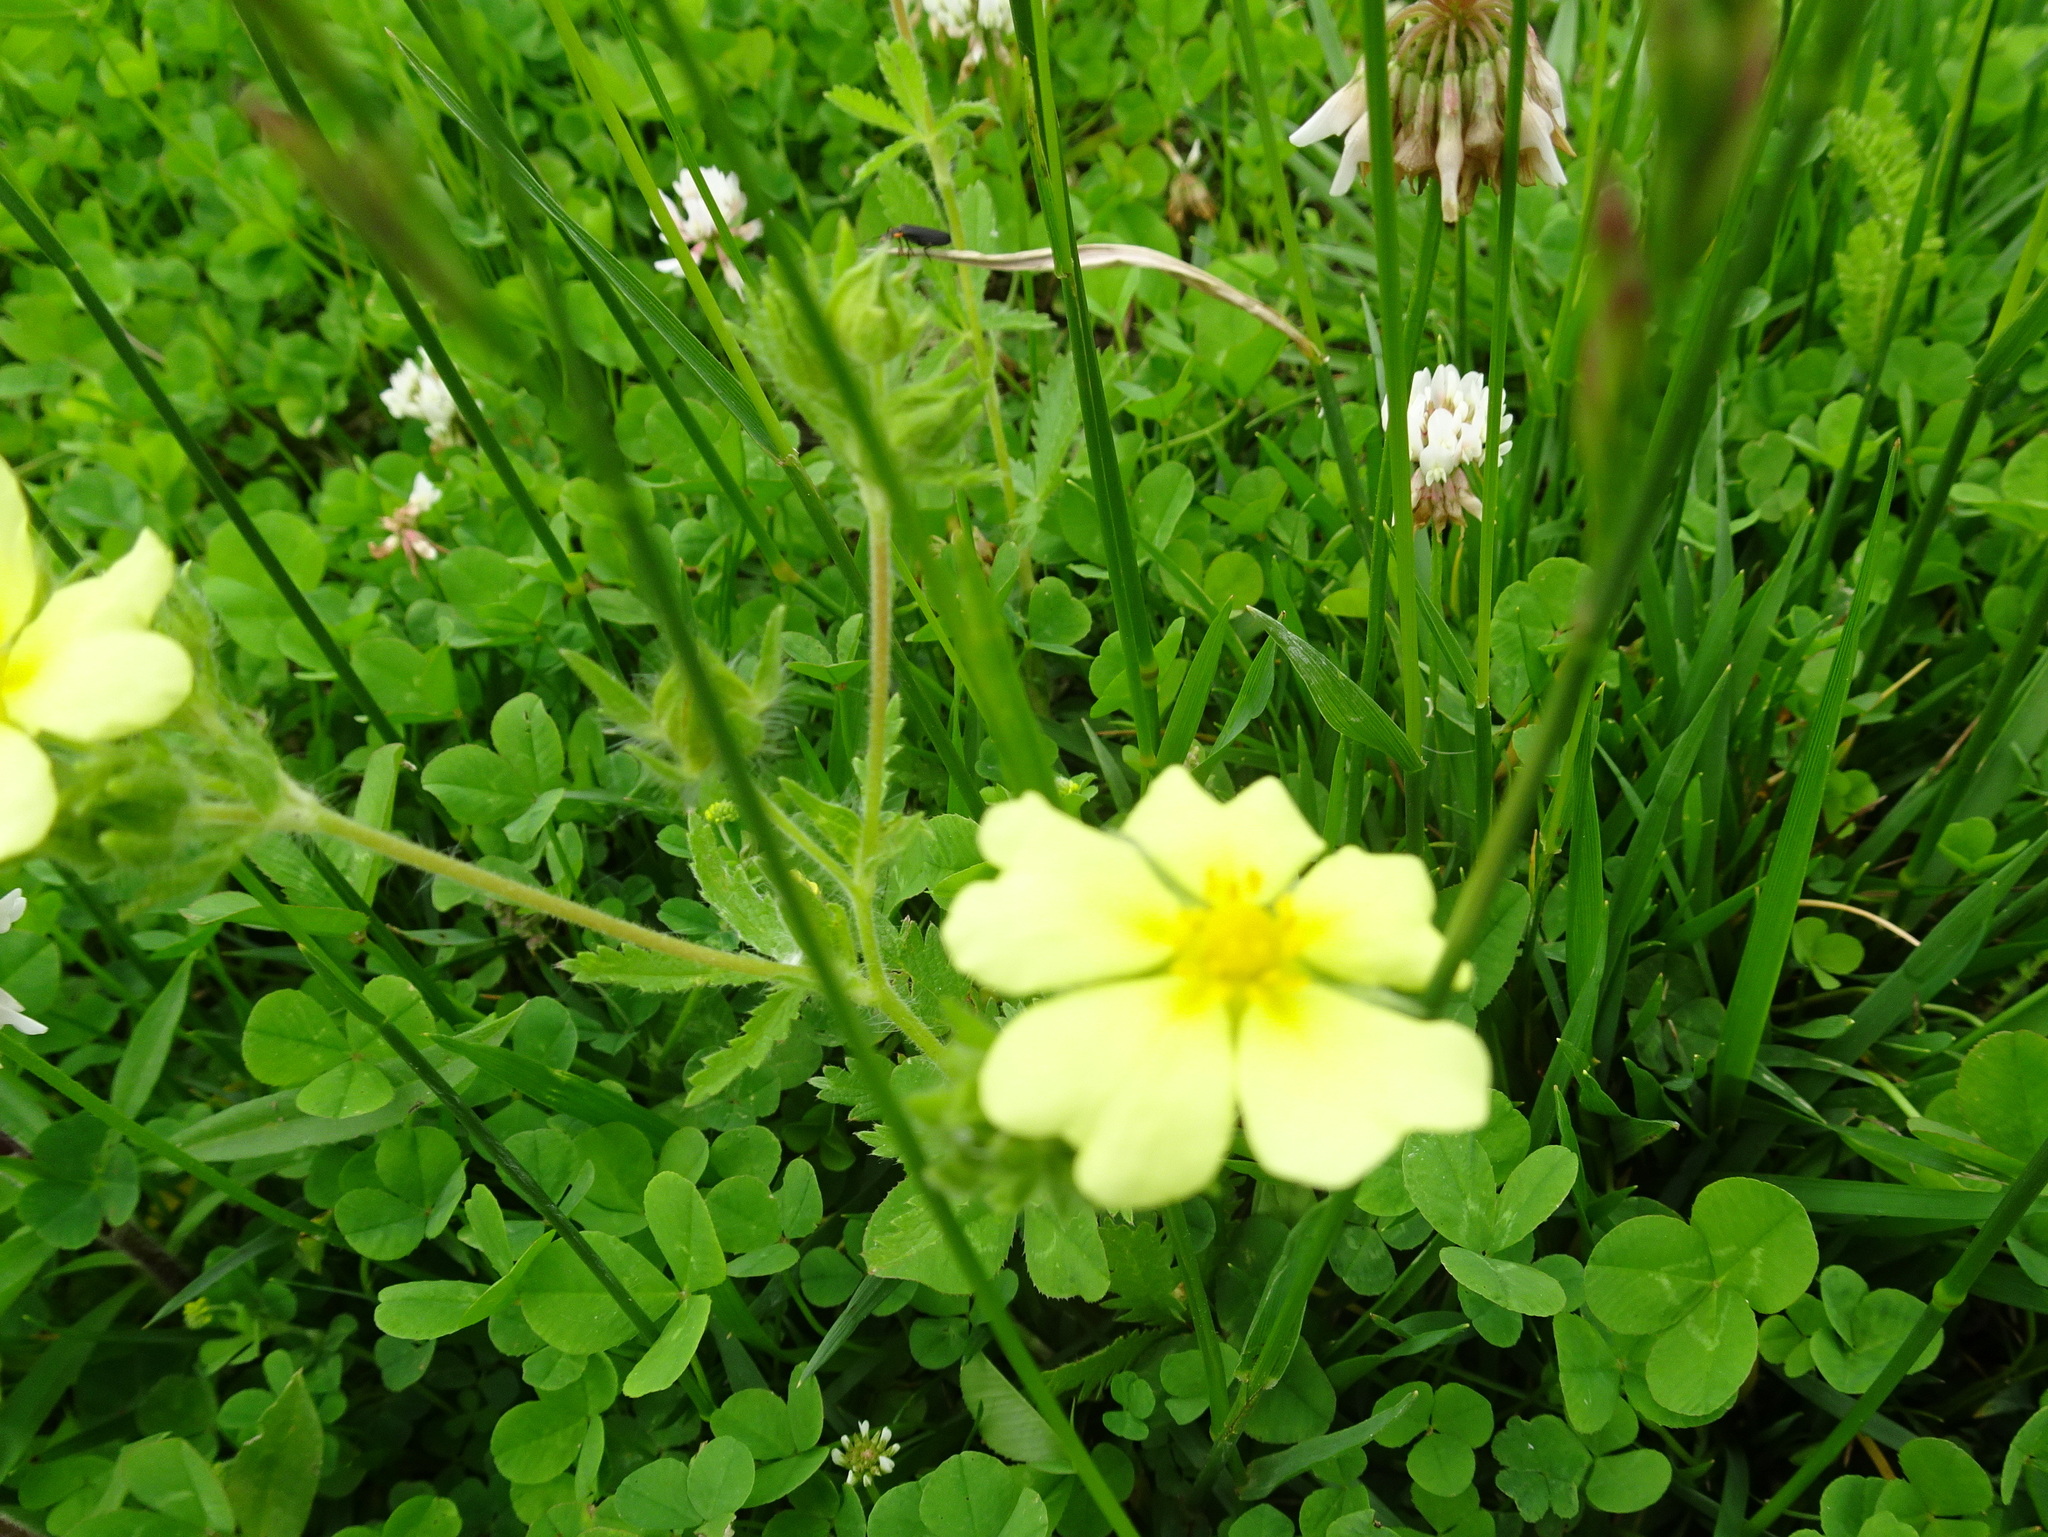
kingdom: Plantae
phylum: Tracheophyta
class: Magnoliopsida
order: Rosales
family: Rosaceae
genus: Potentilla
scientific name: Potentilla recta
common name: Sulphur cinquefoil
